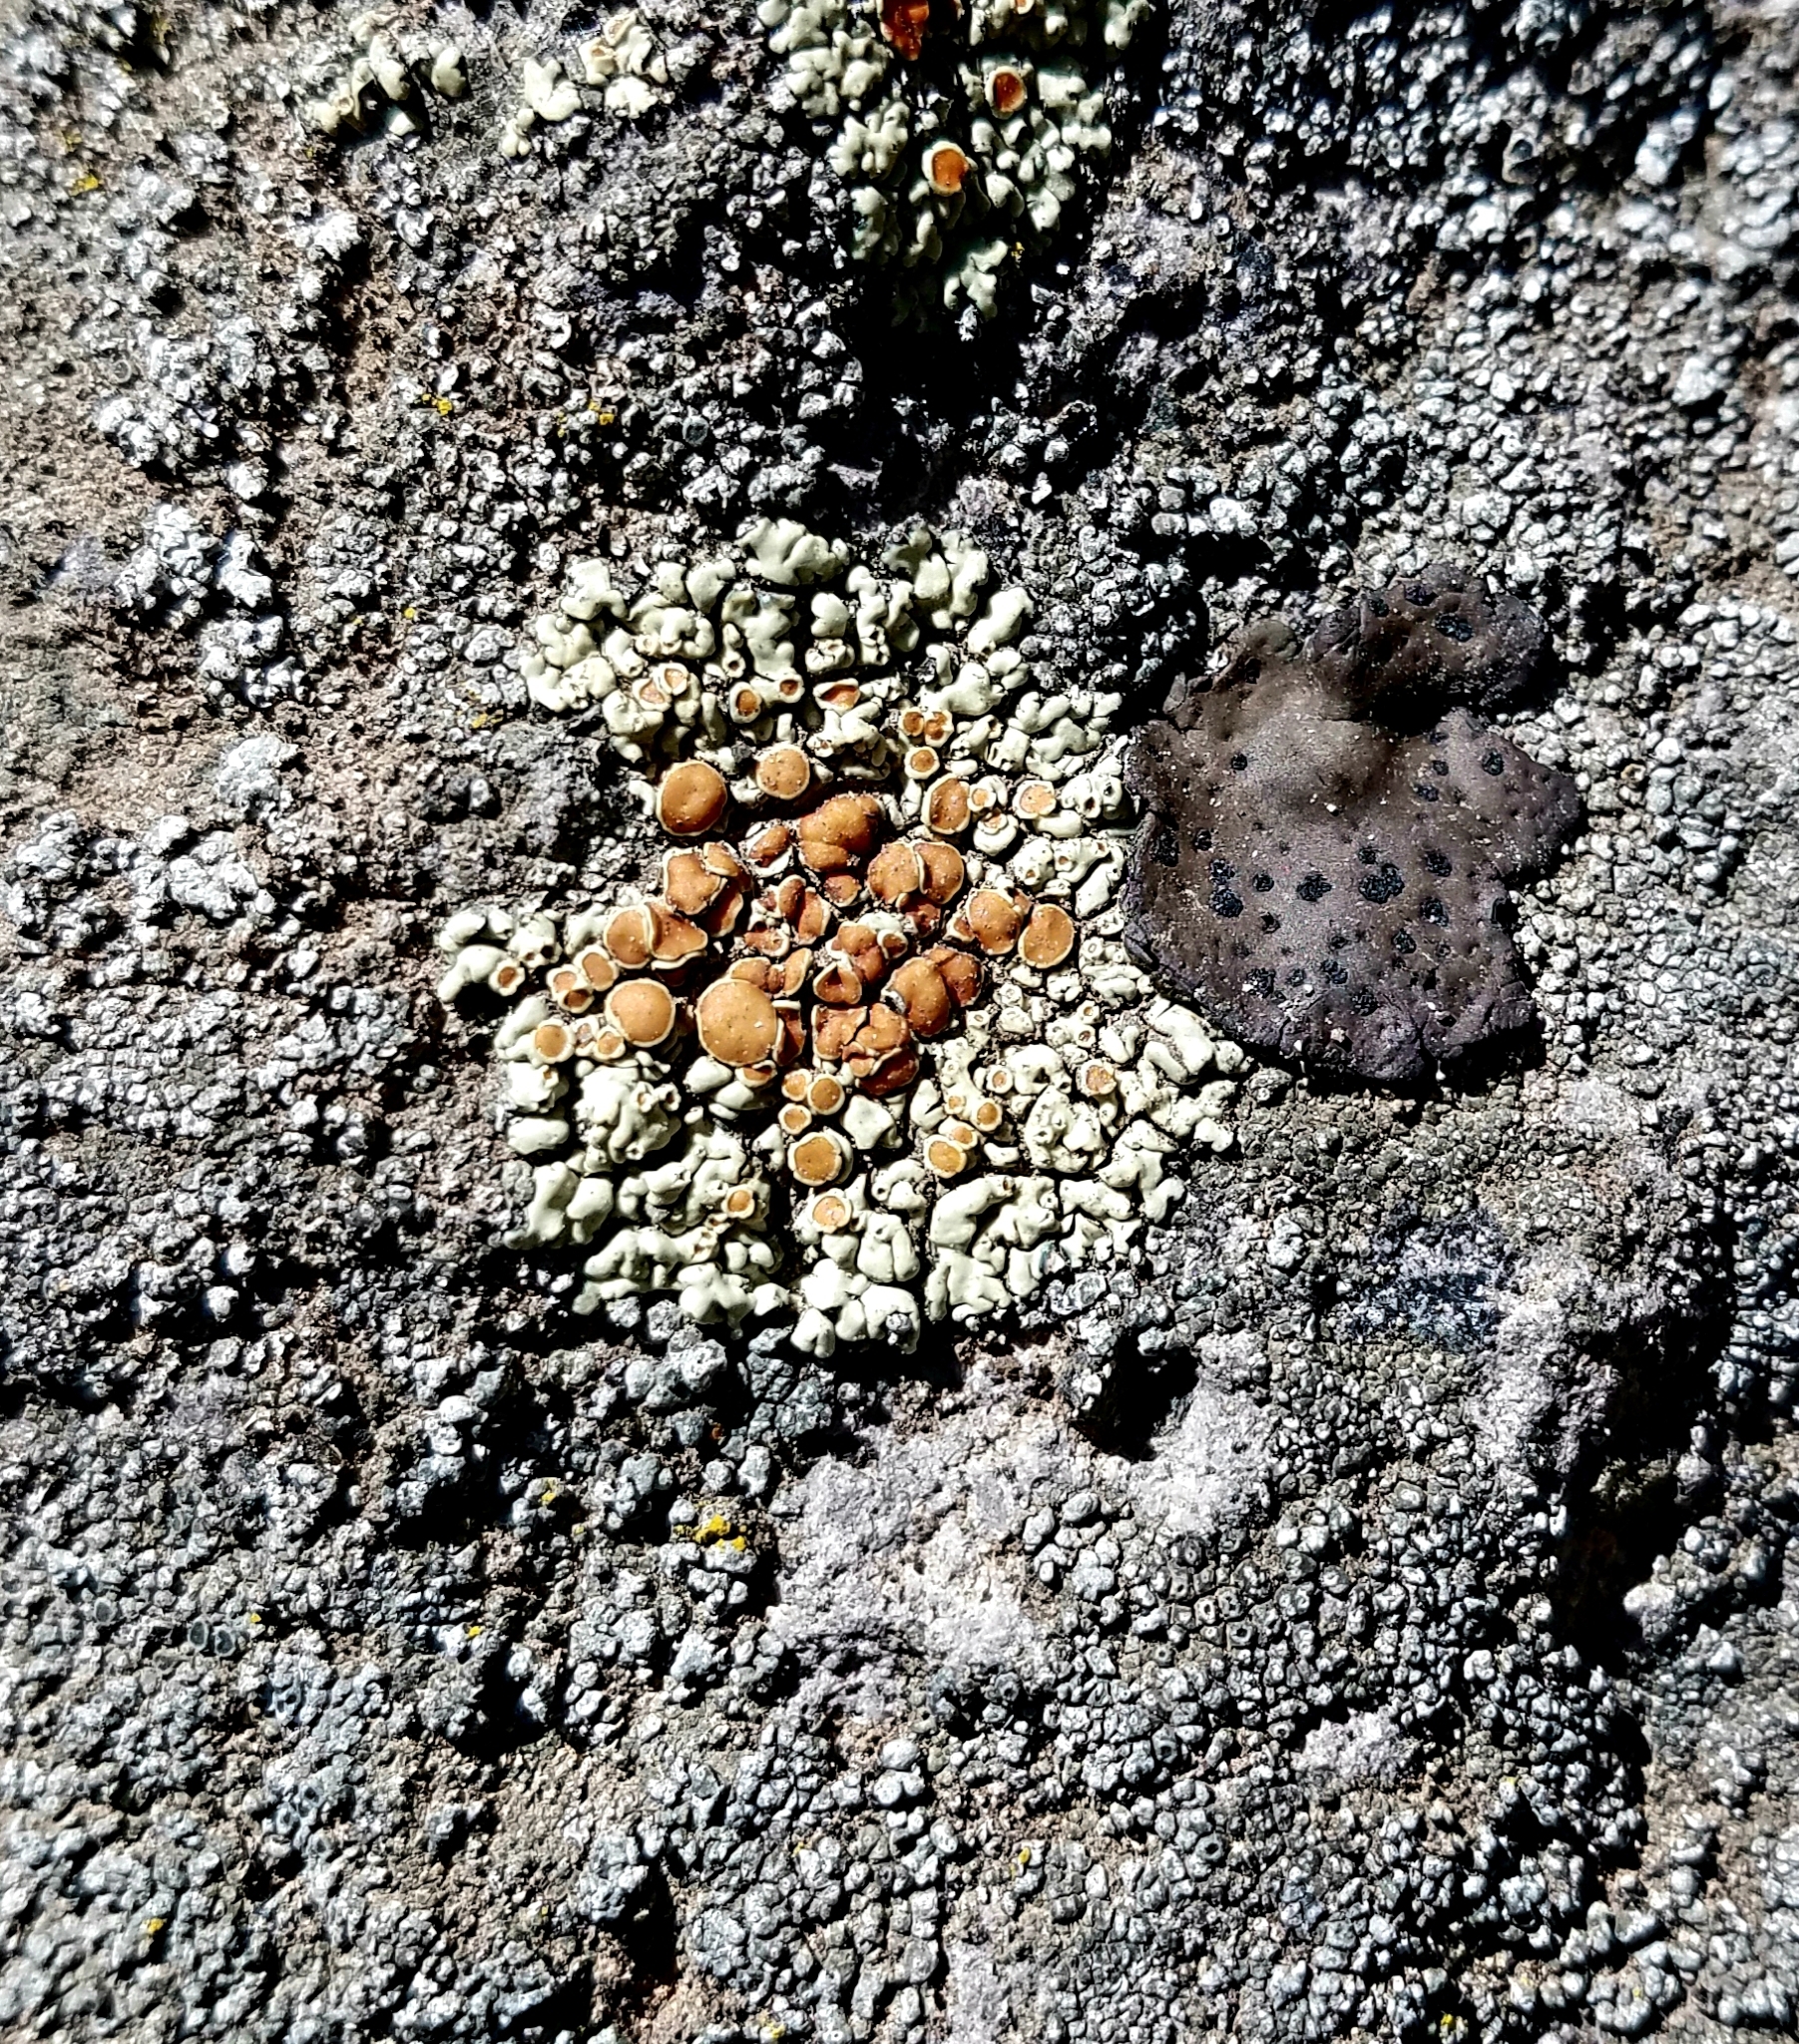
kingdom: Fungi
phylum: Ascomycota
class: Lecanoromycetes
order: Lecanorales
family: Lecanoraceae
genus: Protoparmeliopsis
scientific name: Protoparmeliopsis muralis
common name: Stonewall rim lichen
